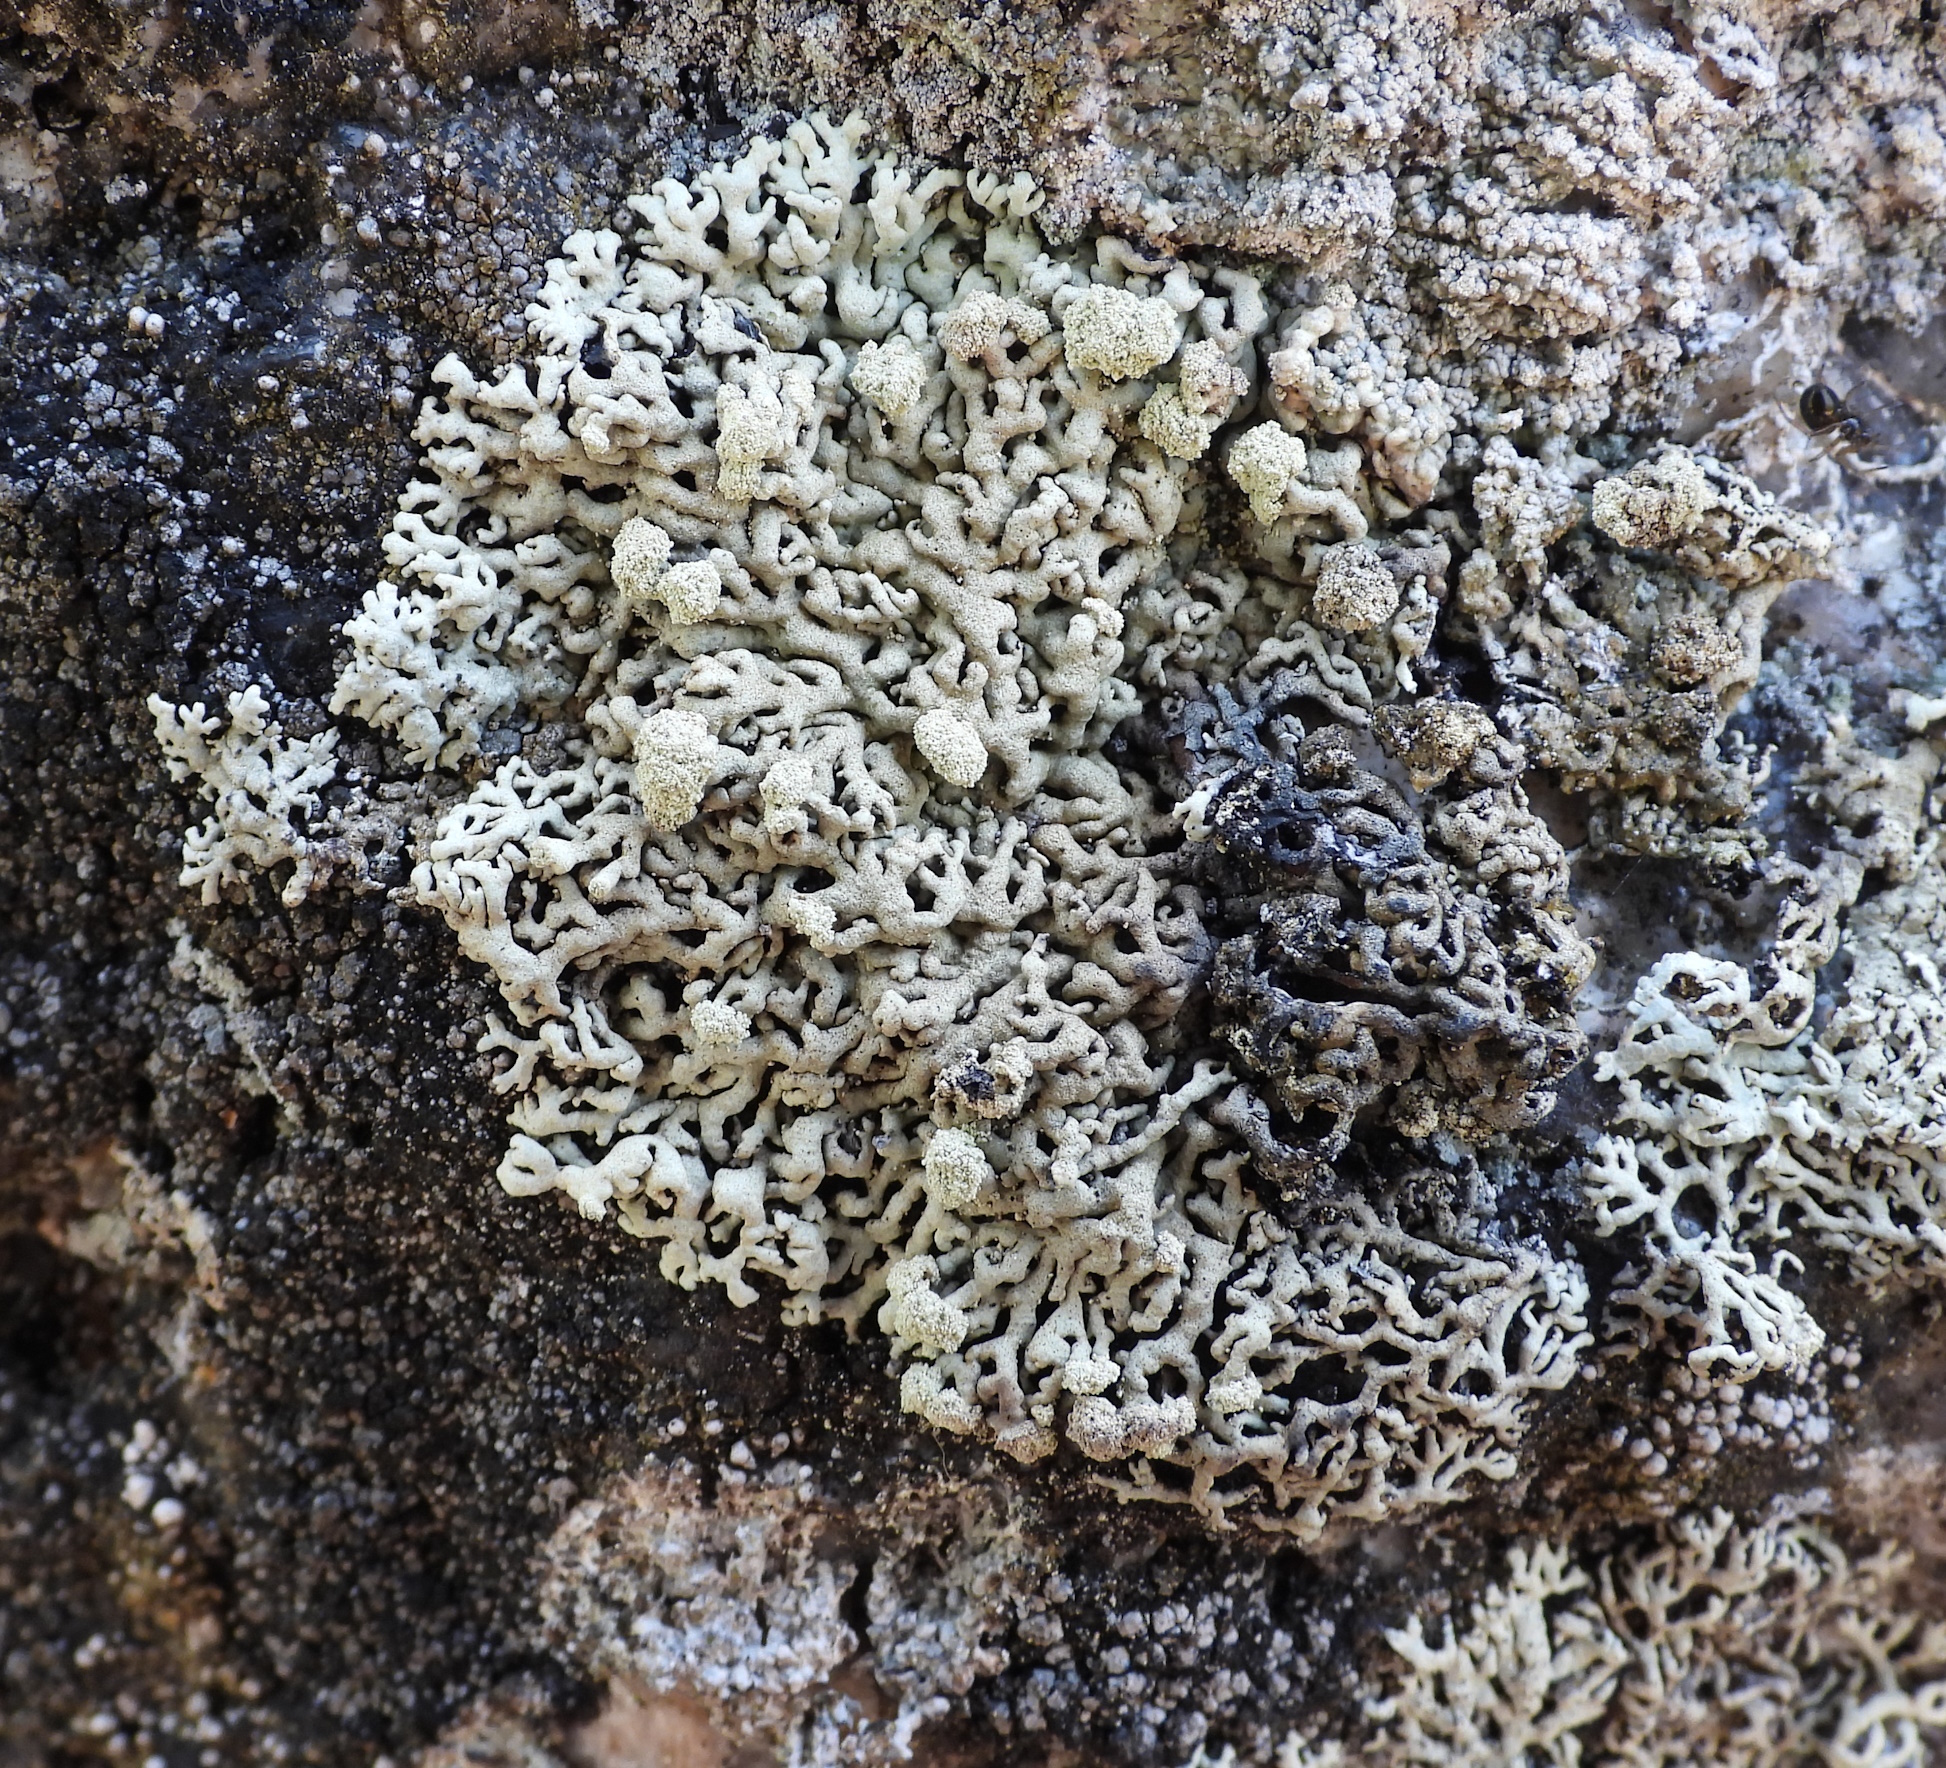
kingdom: Fungi
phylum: Ascomycota
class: Lecanoromycetes
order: Lecanorales
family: Parmeliaceae
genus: Arctoparmelia
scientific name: Arctoparmelia incurva
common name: Bent ring lichen
